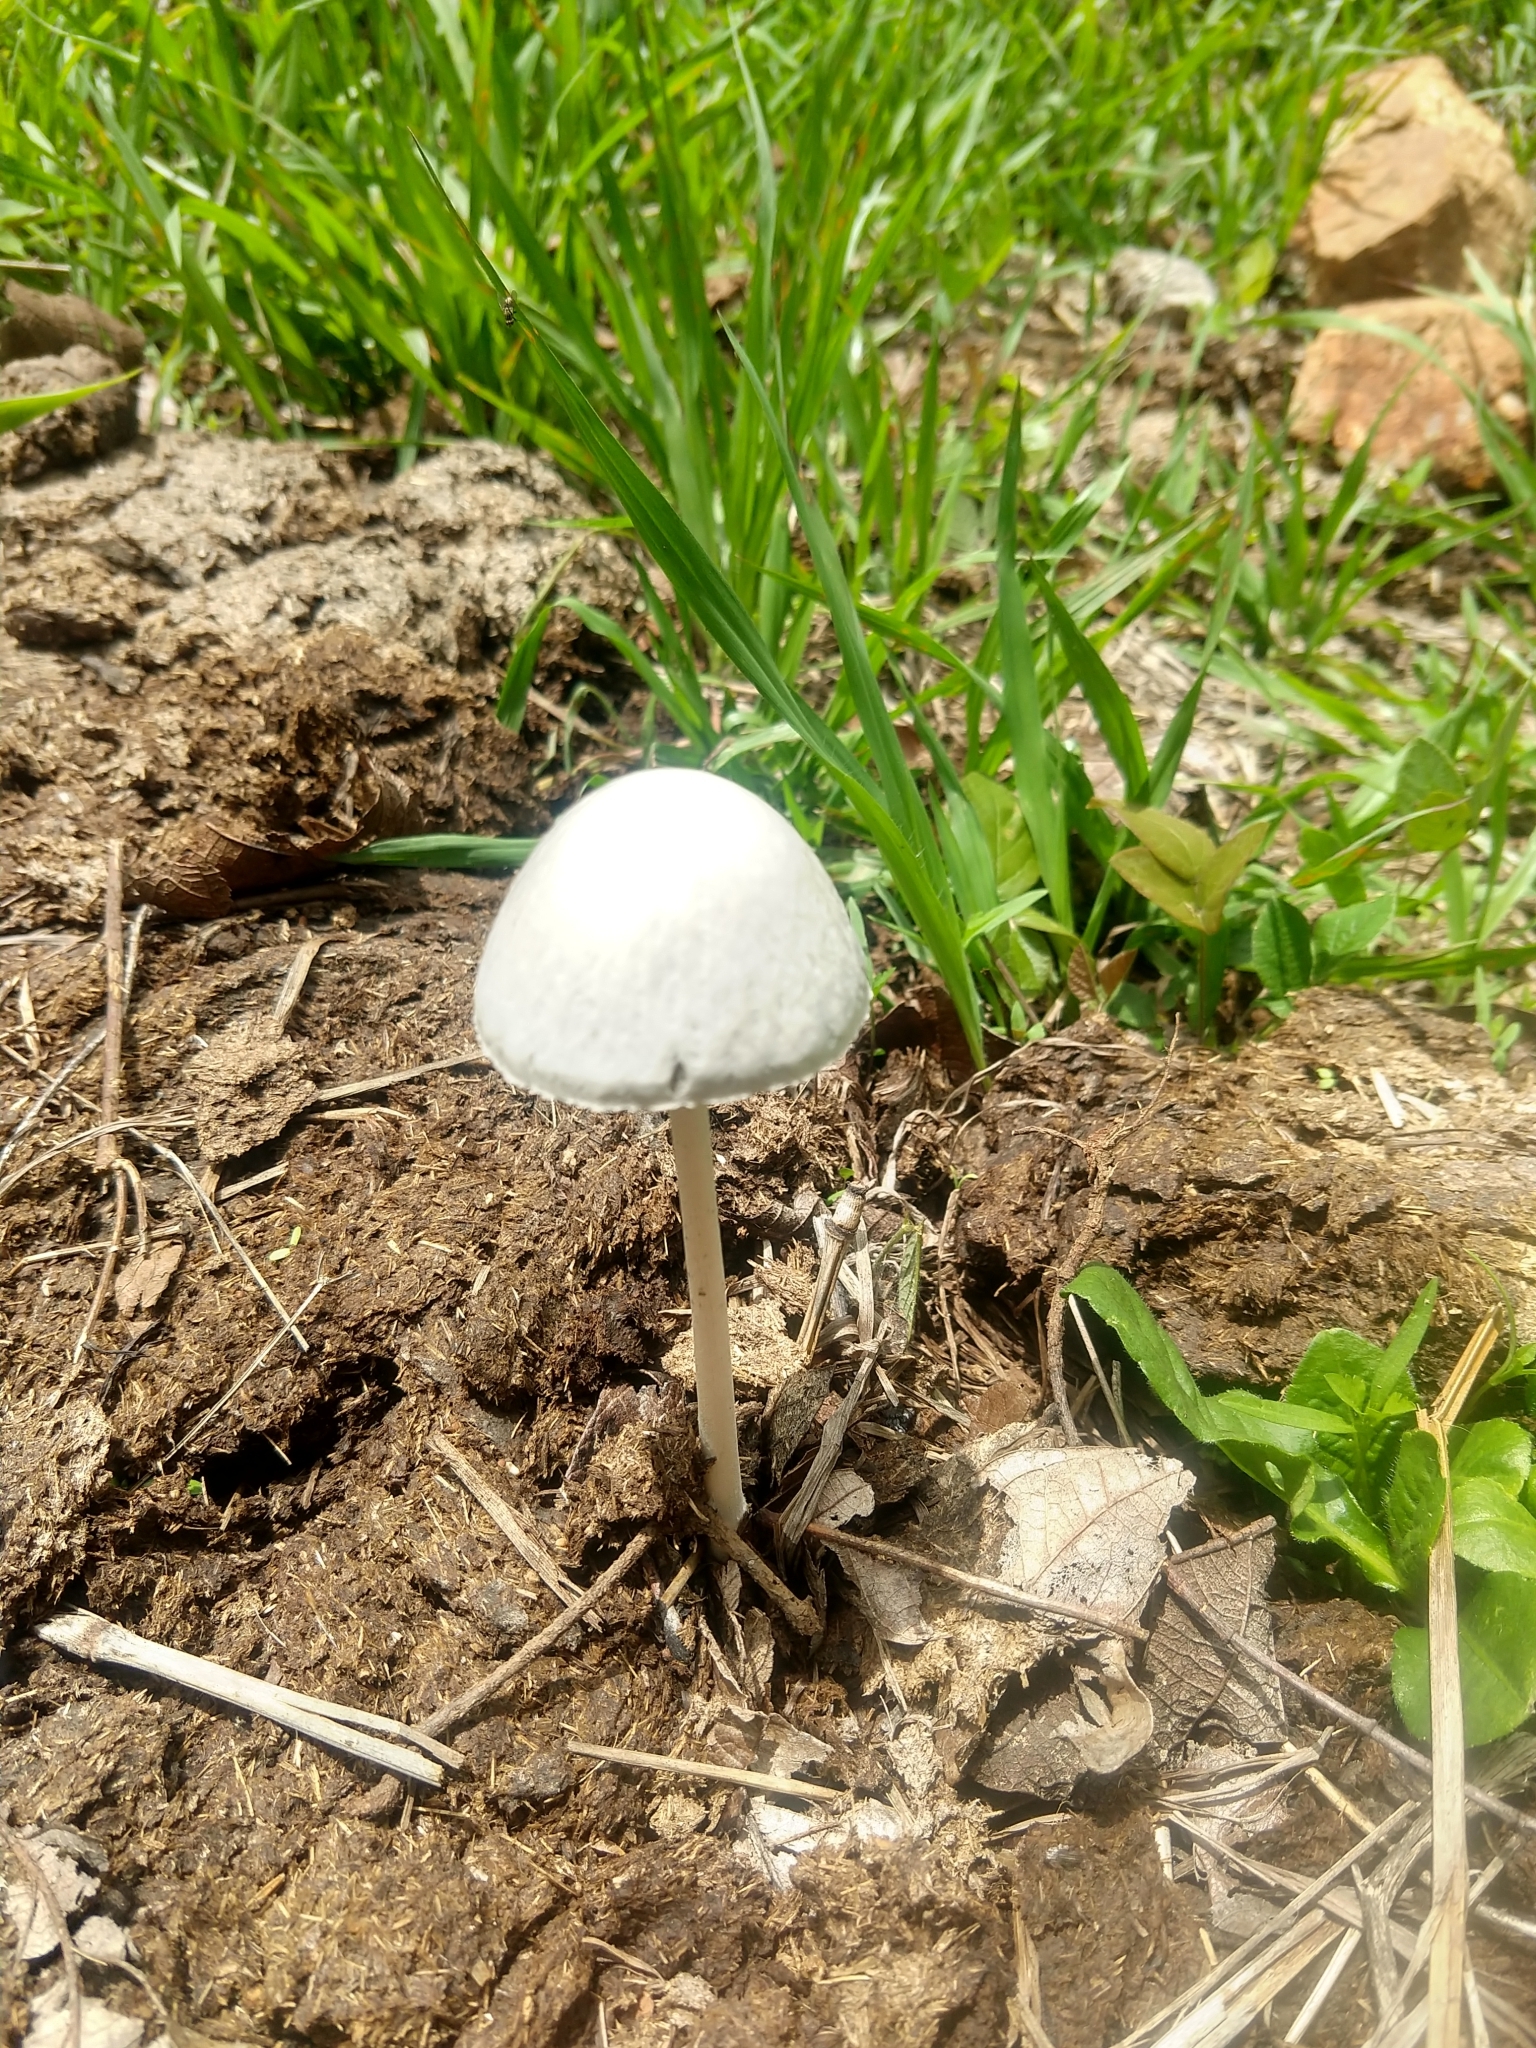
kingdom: Fungi
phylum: Basidiomycota
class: Agaricomycetes
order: Agaricales
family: Bolbitiaceae
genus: Panaeolus
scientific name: Panaeolus antillarum
